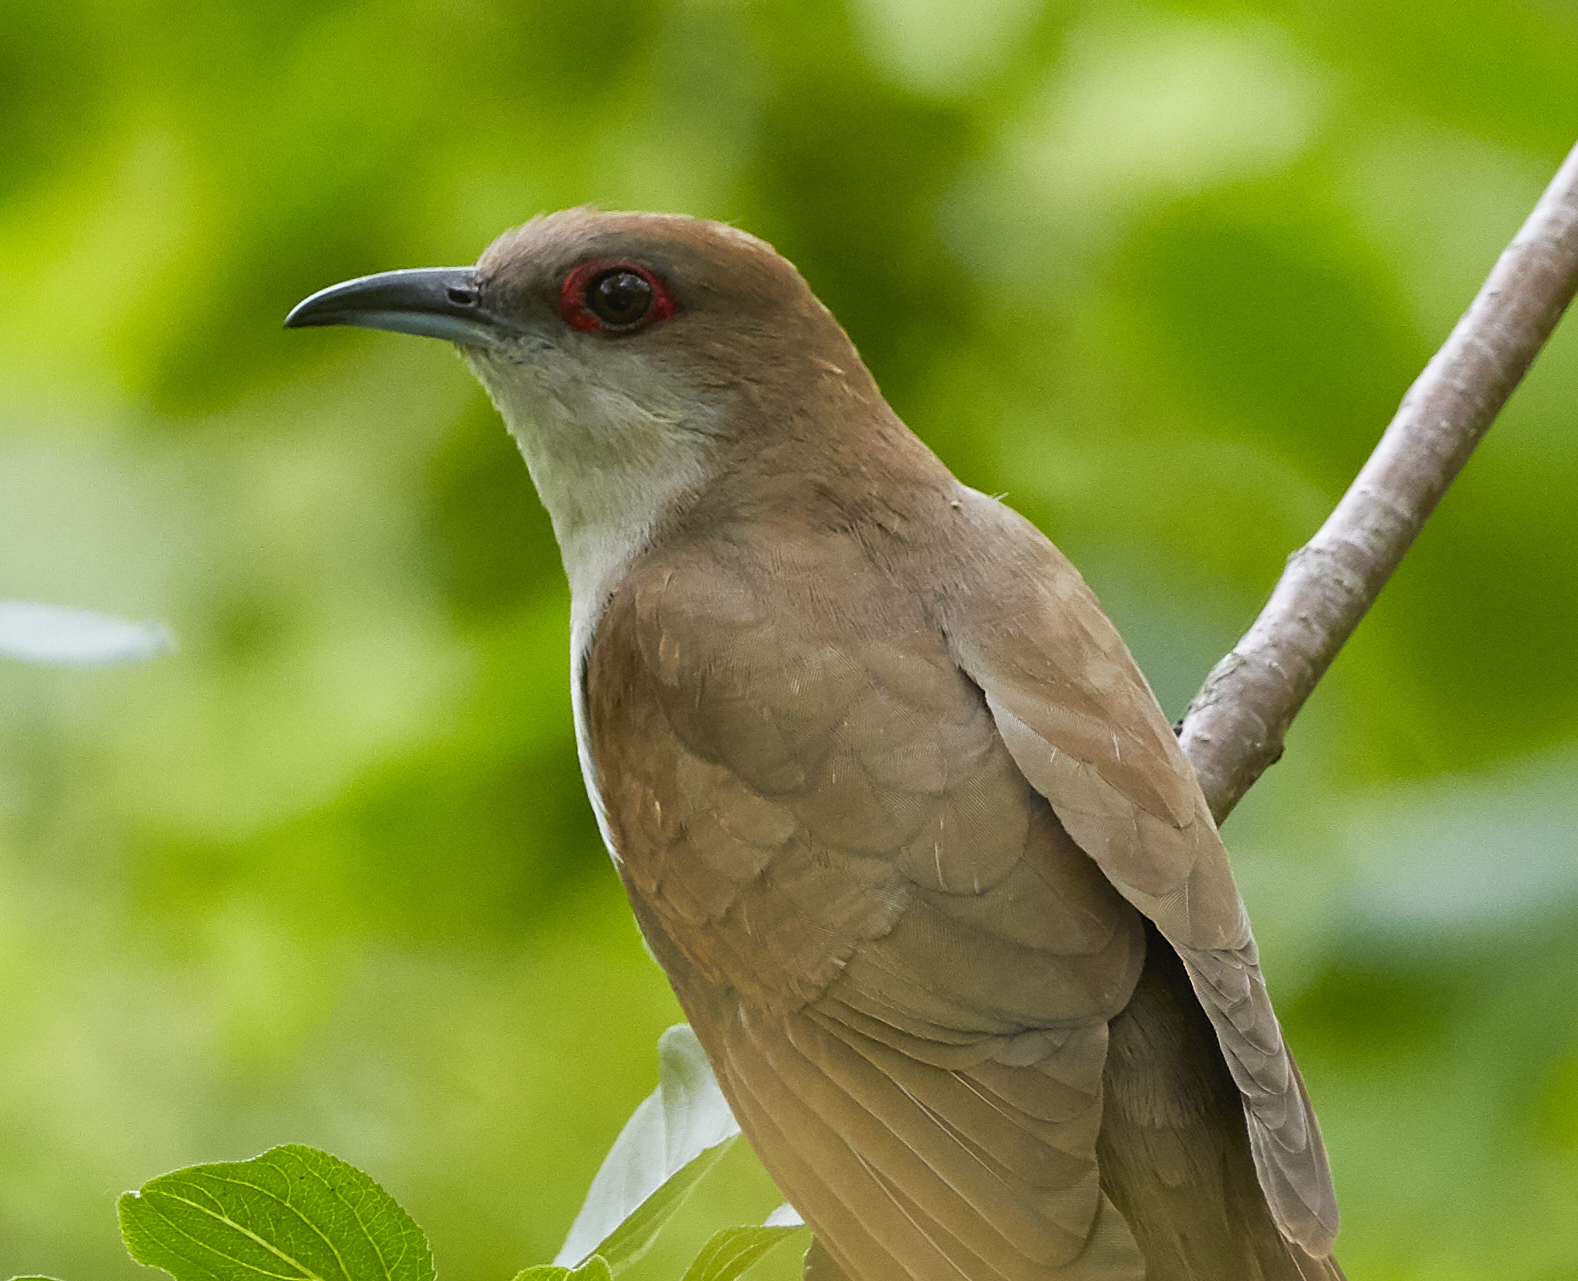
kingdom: Animalia
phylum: Chordata
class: Aves
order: Cuculiformes
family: Cuculidae
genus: Coccyzus
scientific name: Coccyzus erythropthalmus
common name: Black-billed cuckoo
